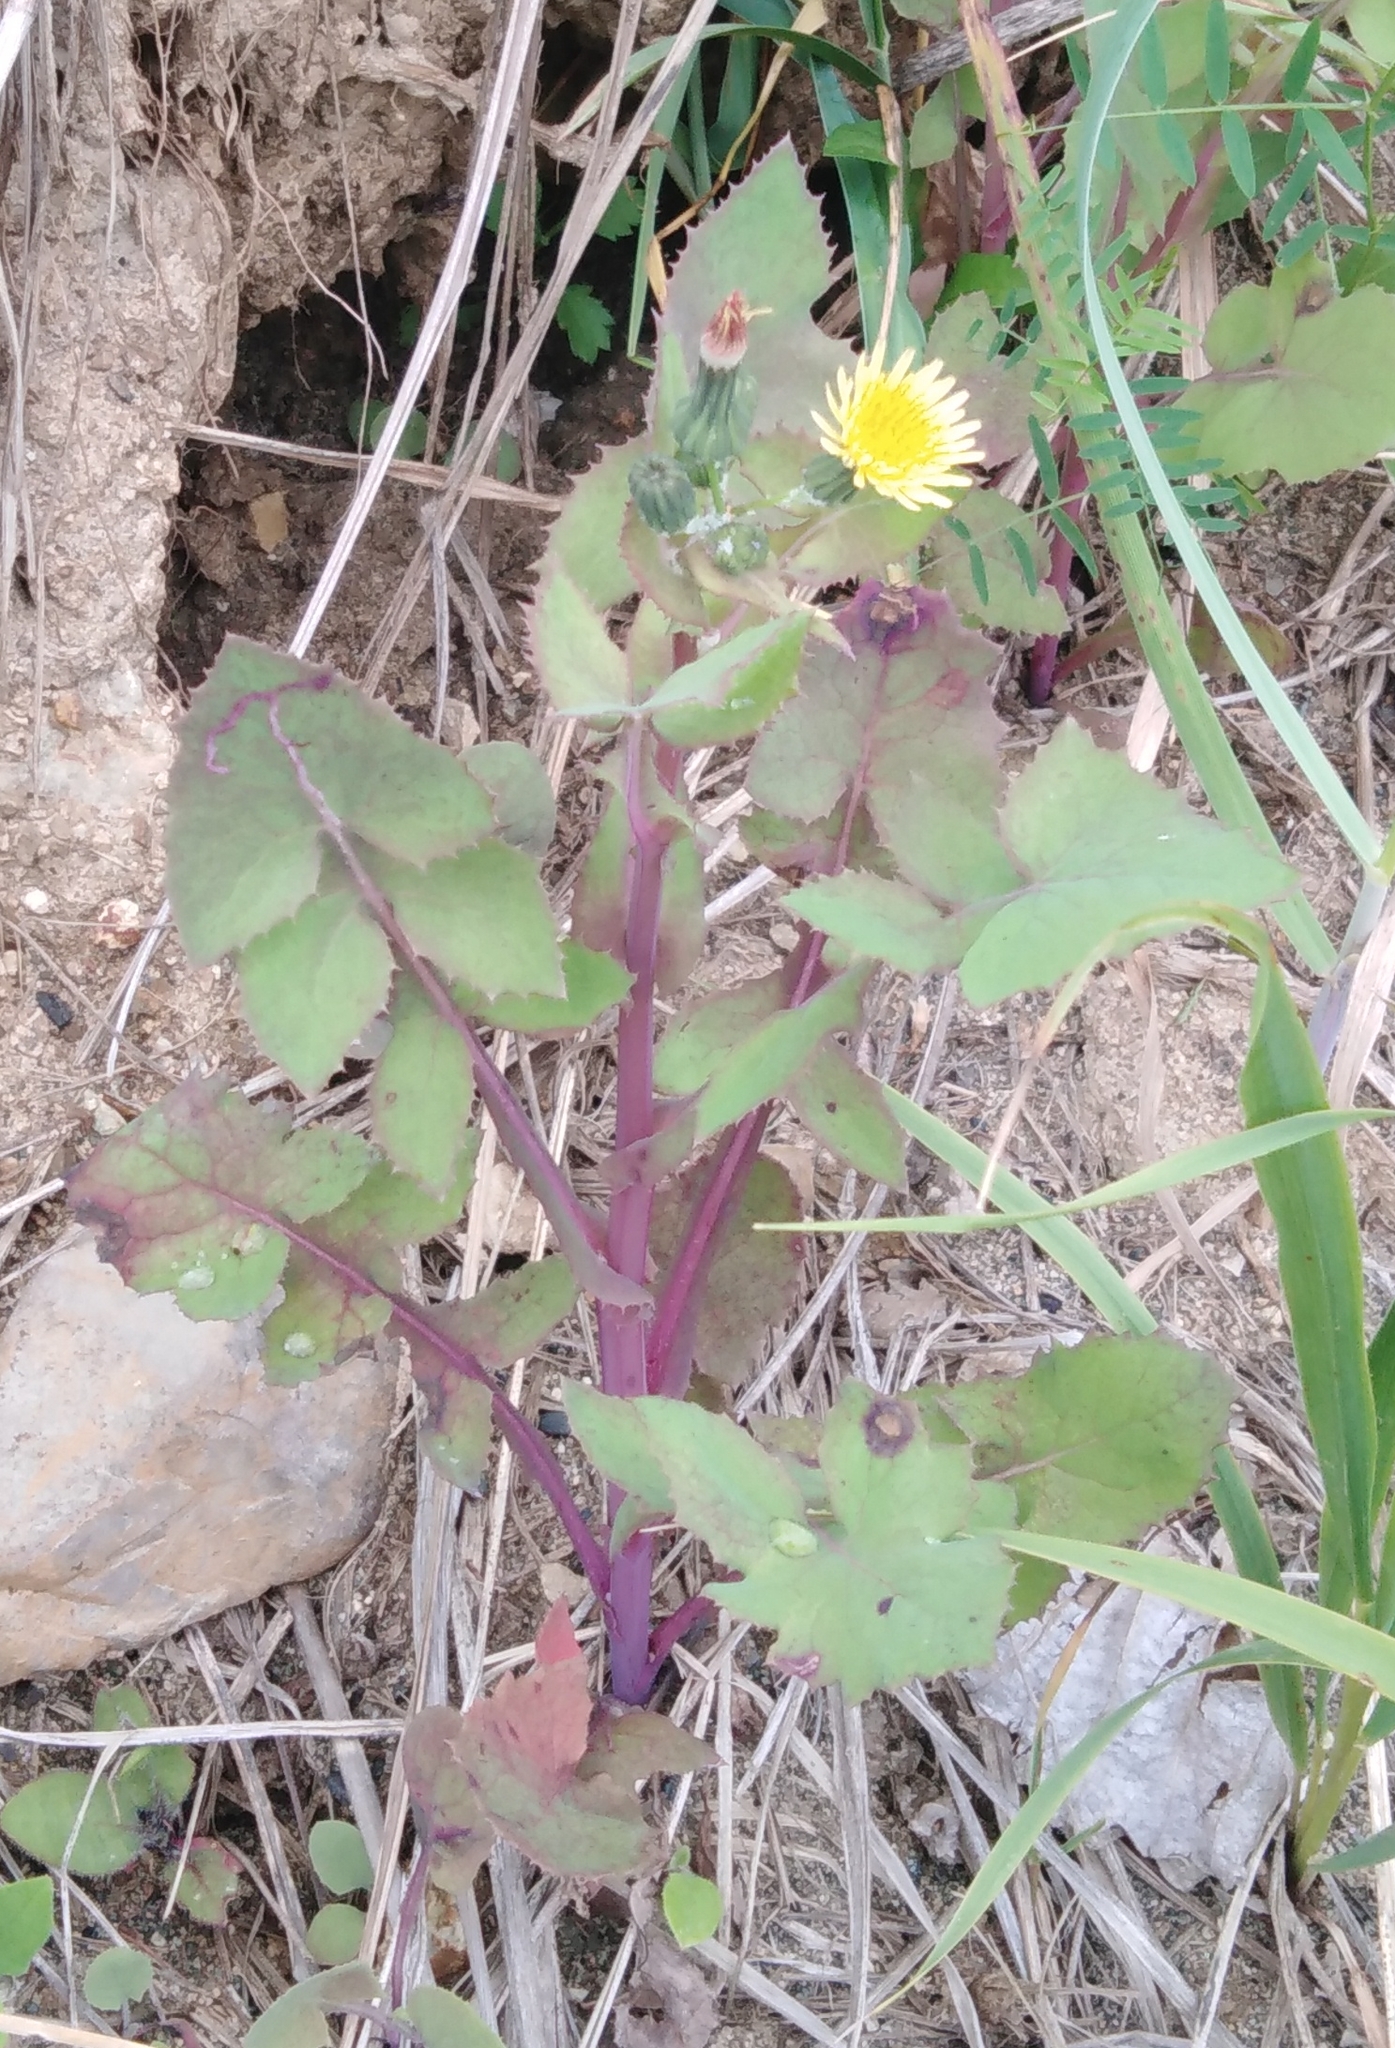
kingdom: Plantae
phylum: Tracheophyta
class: Magnoliopsida
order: Asterales
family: Asteraceae
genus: Sonchus
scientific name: Sonchus oleraceus
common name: Common sowthistle
